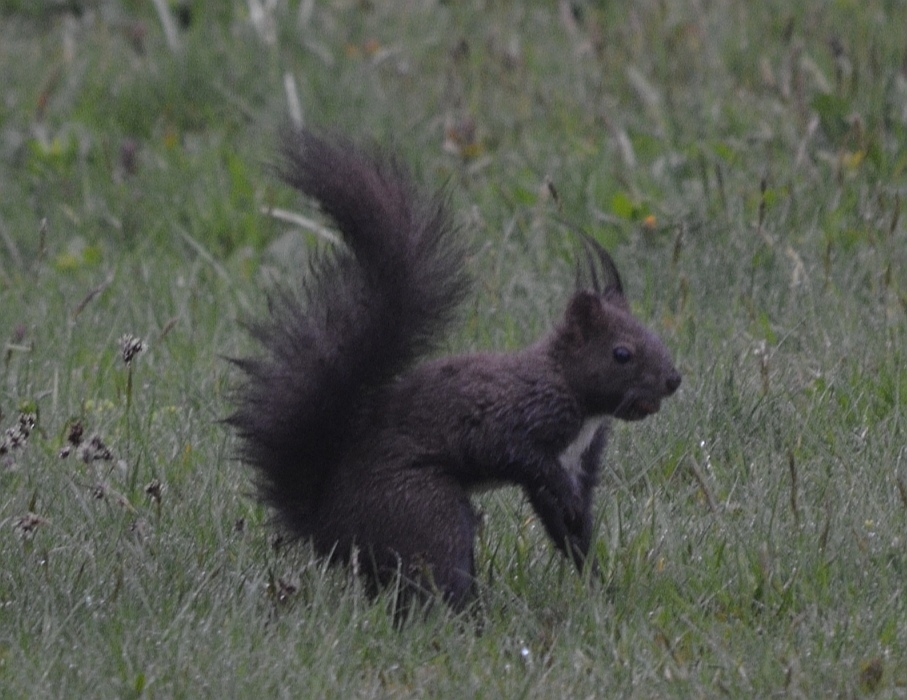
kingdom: Animalia
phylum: Chordata
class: Mammalia
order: Rodentia
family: Sciuridae
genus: Sciurus
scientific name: Sciurus vulgaris
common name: Eurasian red squirrel
